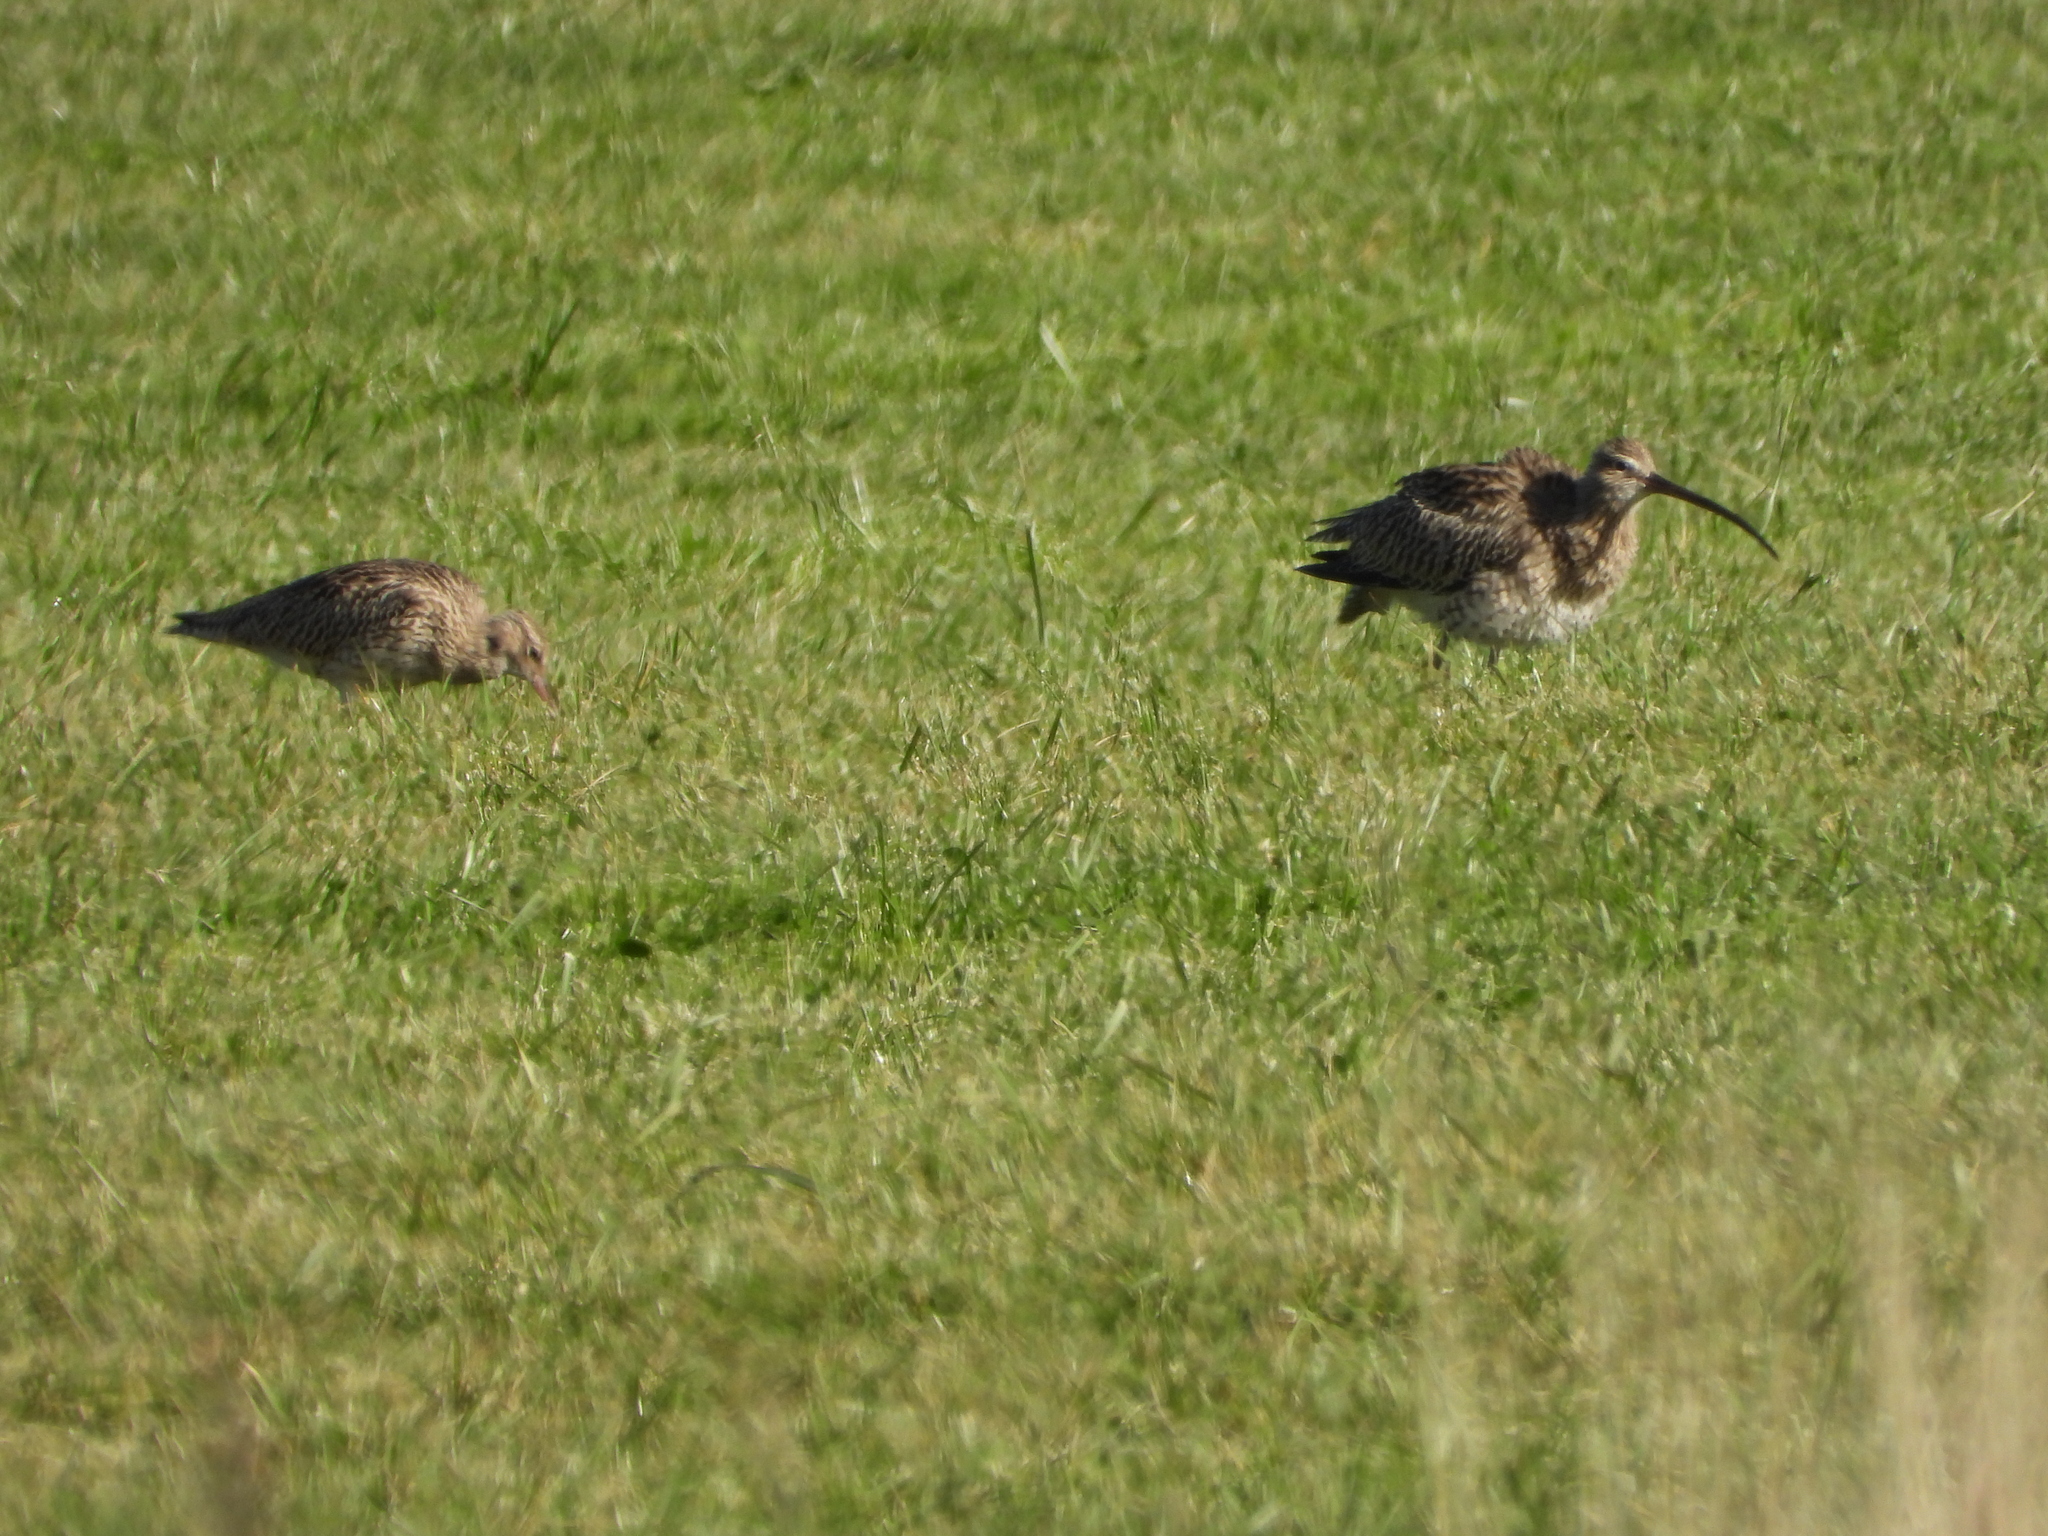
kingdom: Animalia
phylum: Chordata
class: Aves
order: Charadriiformes
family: Scolopacidae
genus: Numenius
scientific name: Numenius arquata
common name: Eurasian curlew
